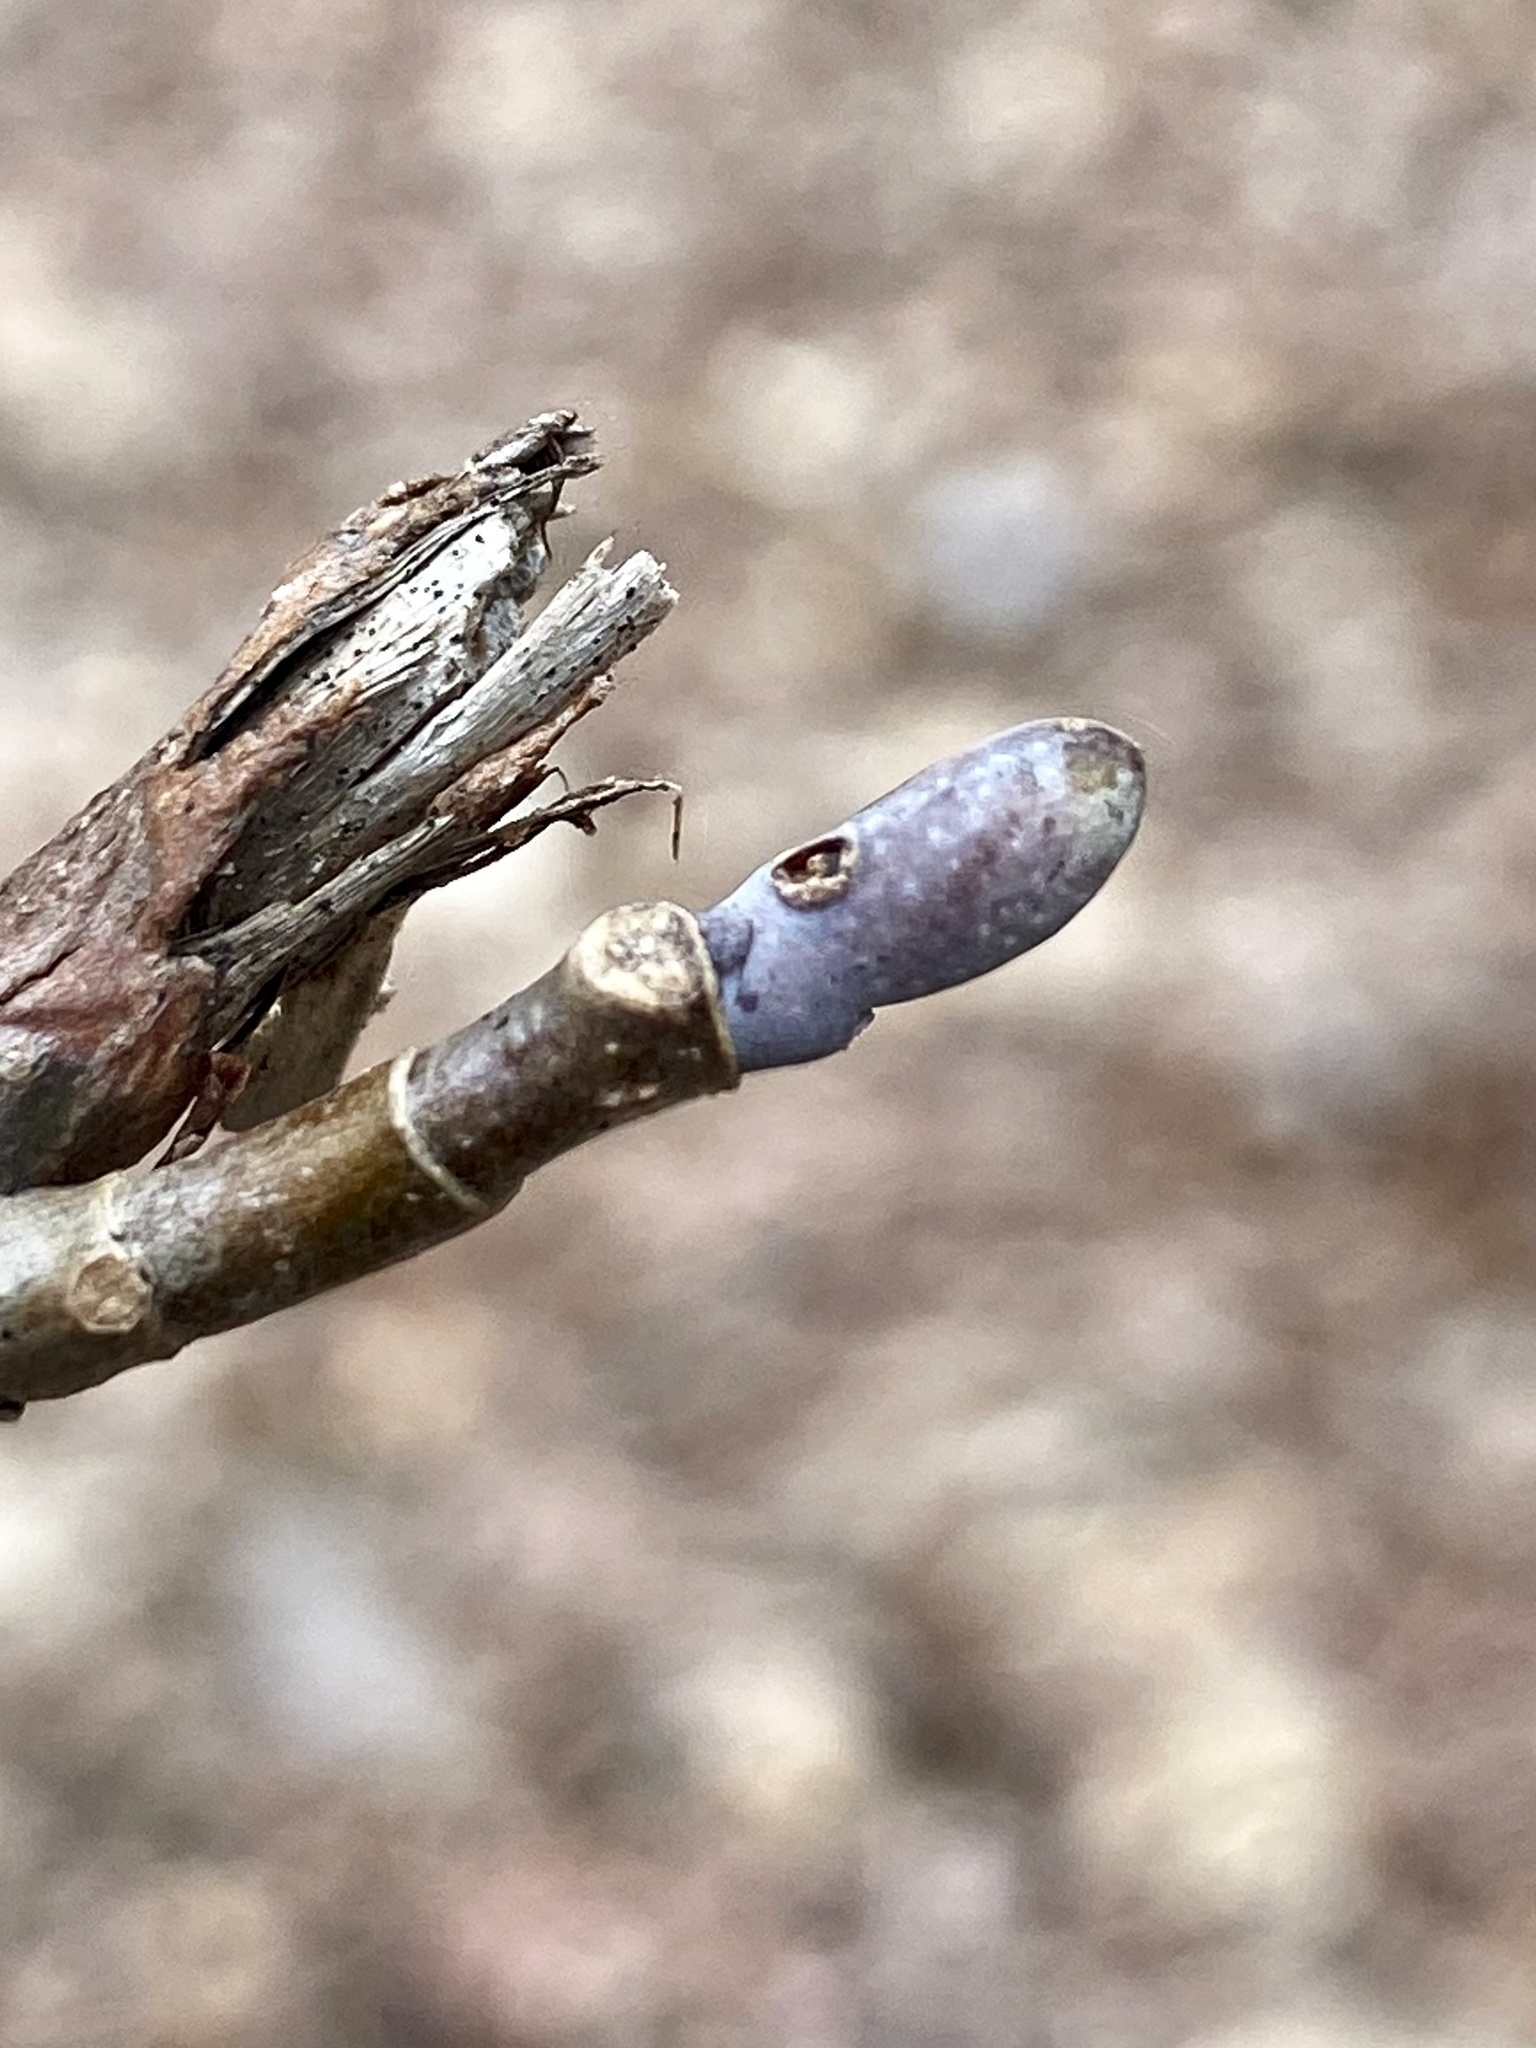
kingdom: Plantae
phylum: Tracheophyta
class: Magnoliopsida
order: Magnoliales
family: Magnoliaceae
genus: Liriodendron
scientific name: Liriodendron tulipifera
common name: Tulip tree
